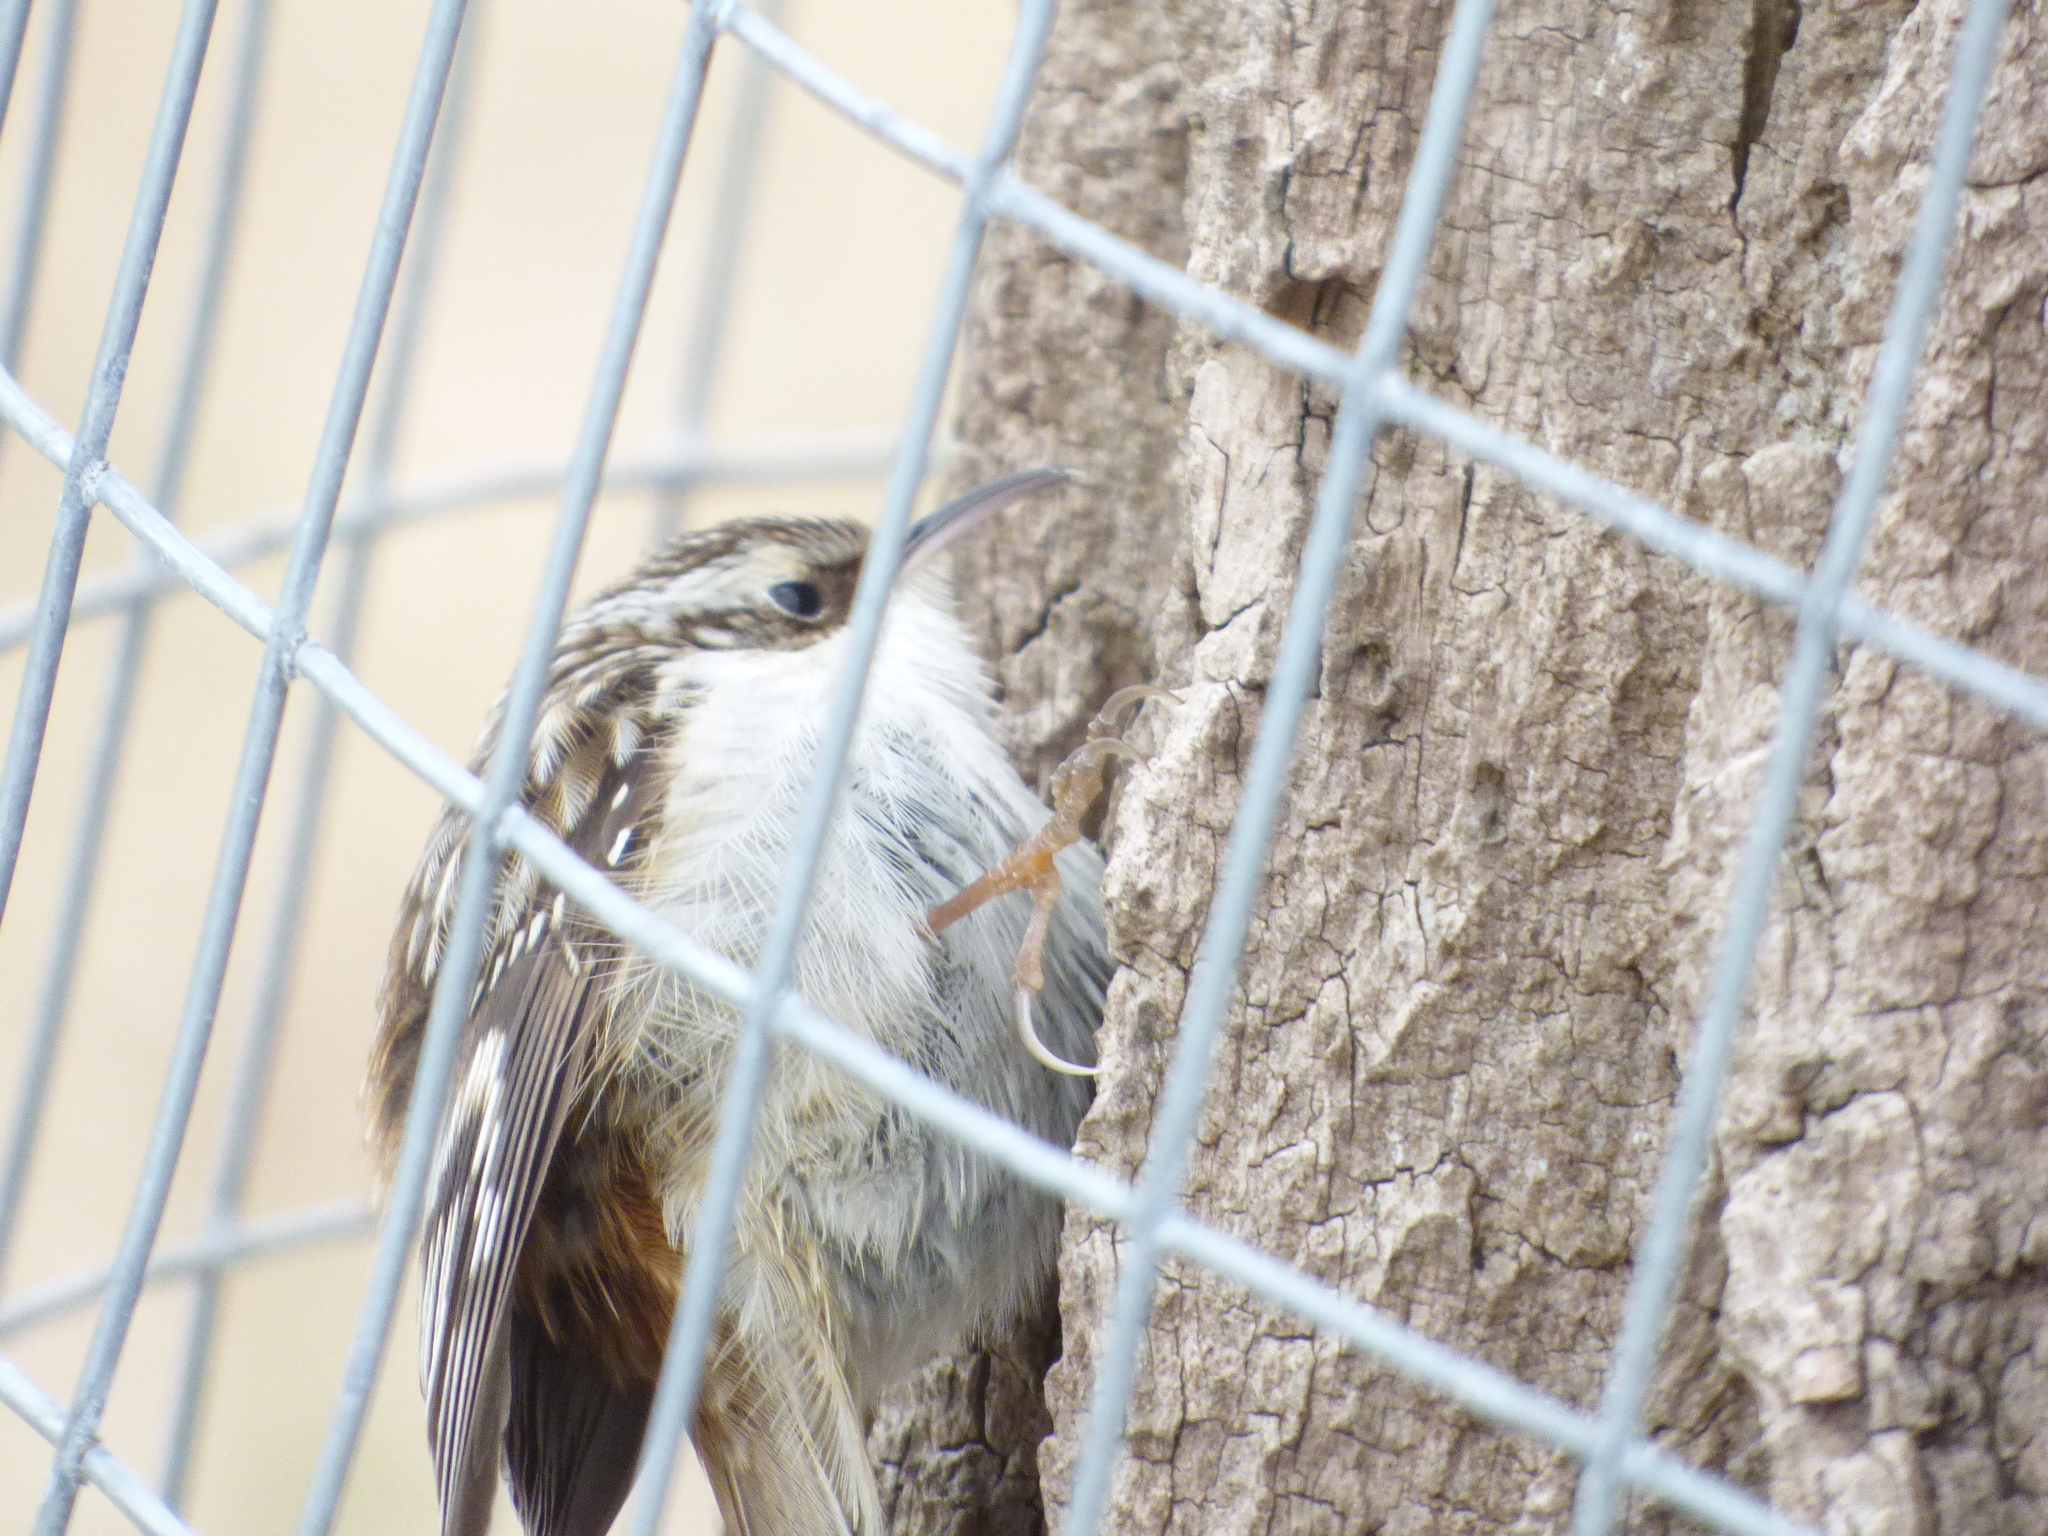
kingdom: Animalia
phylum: Chordata
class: Aves
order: Passeriformes
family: Certhiidae
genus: Certhia
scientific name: Certhia americana
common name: Brown creeper
